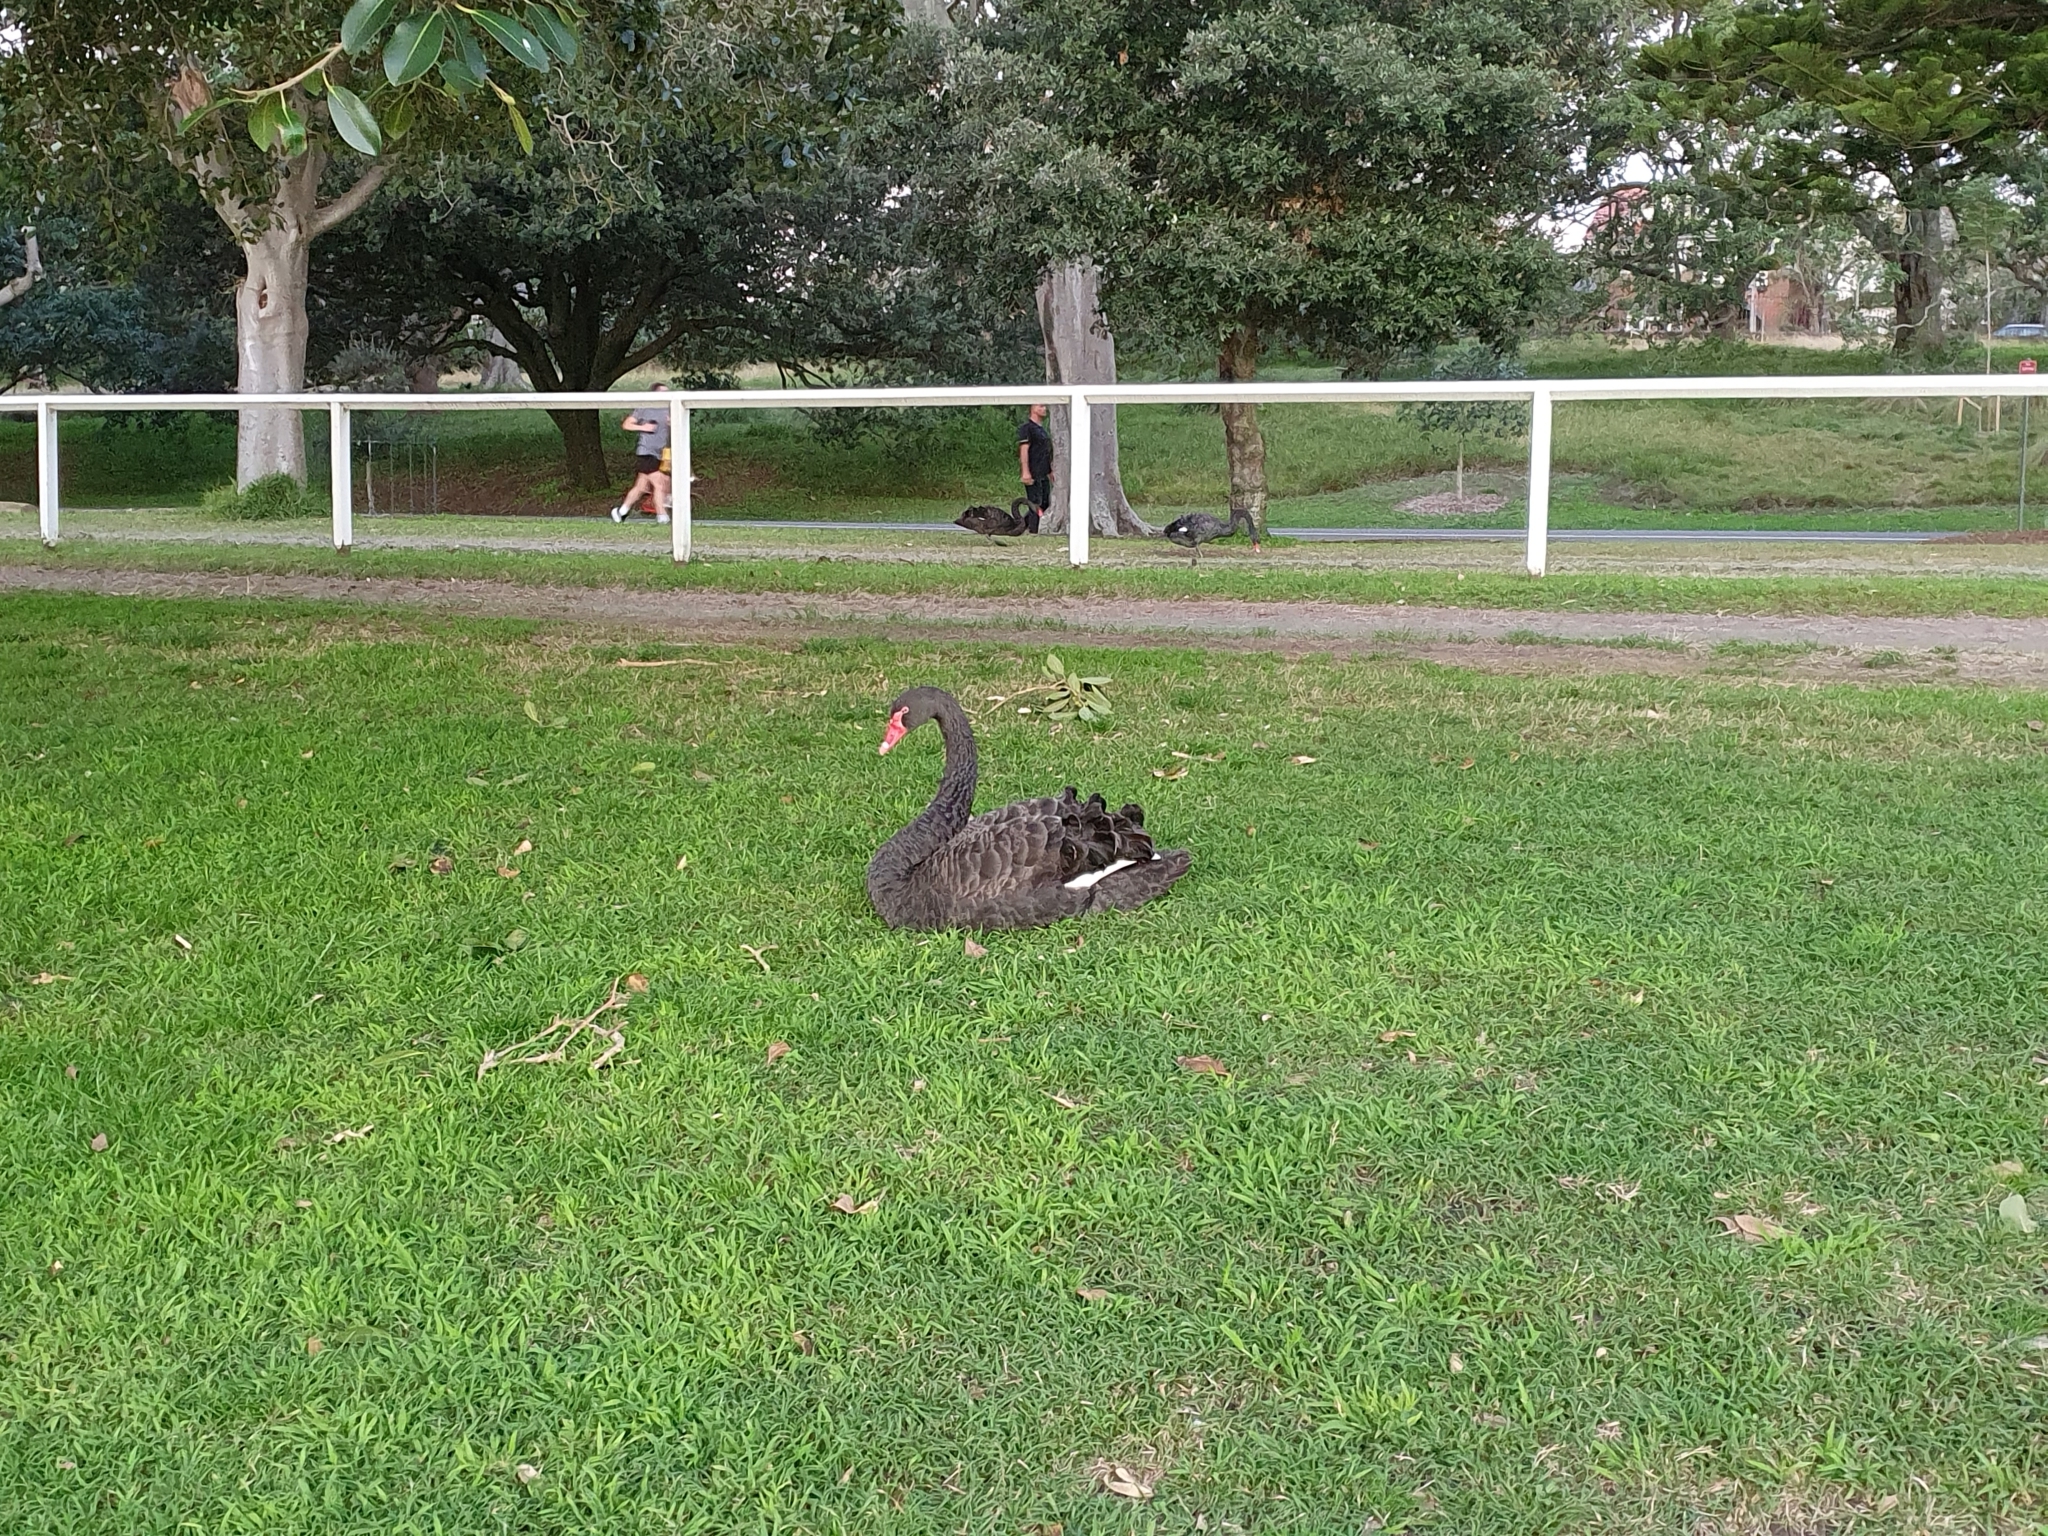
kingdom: Animalia
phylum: Chordata
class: Aves
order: Anseriformes
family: Anatidae
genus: Cygnus
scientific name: Cygnus atratus
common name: Black swan
